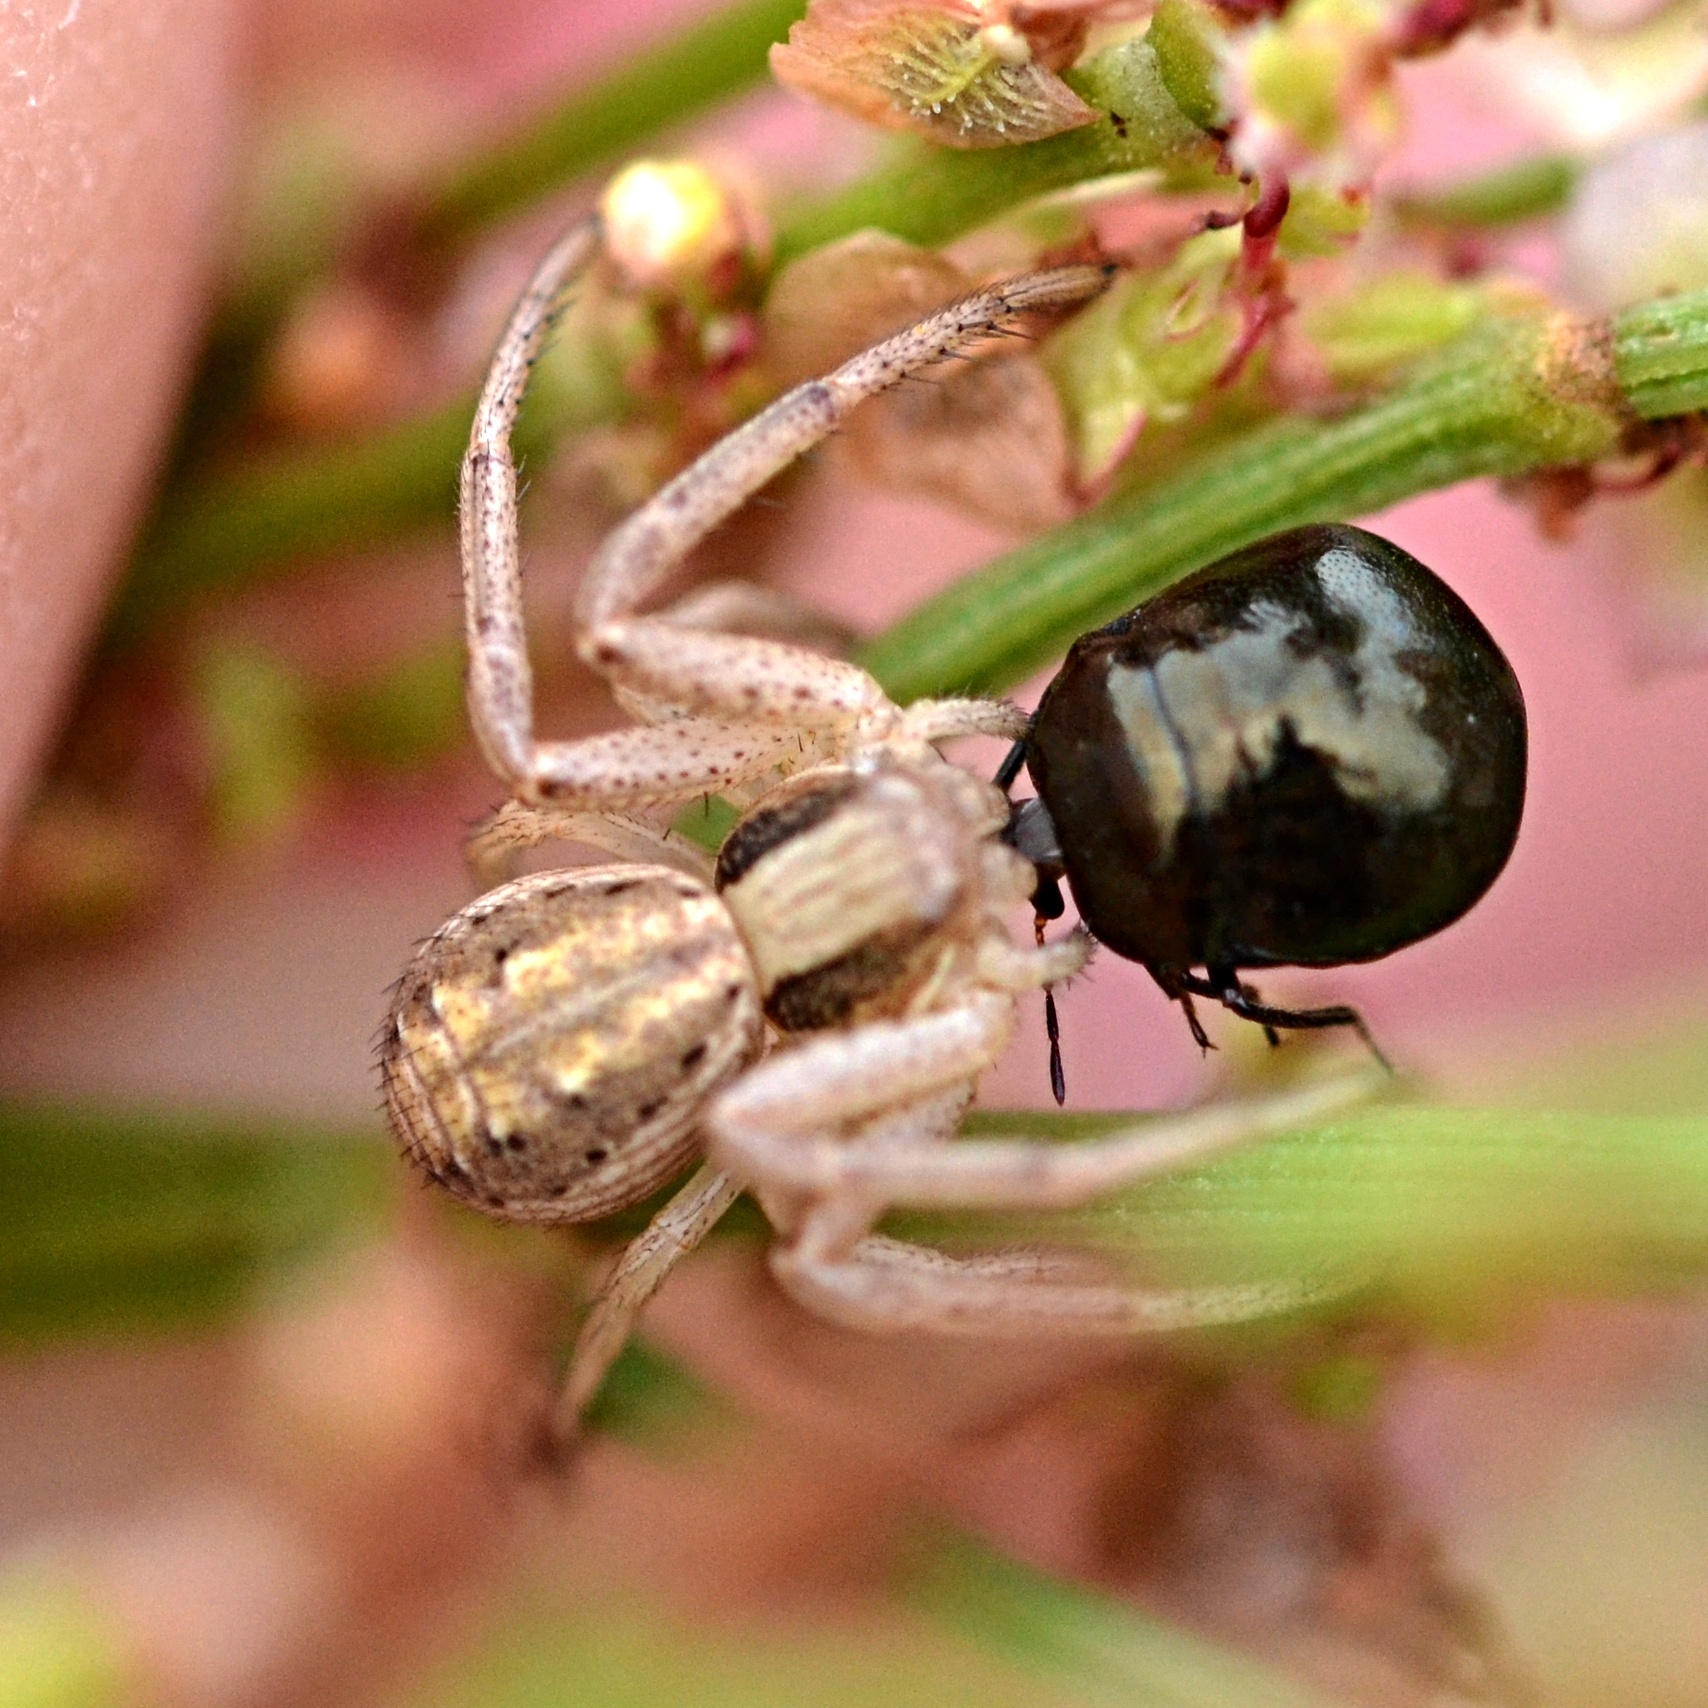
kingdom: Animalia
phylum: Arthropoda
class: Arachnida
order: Araneae
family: Thomisidae
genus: Spiracme
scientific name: Spiracme striatipes
